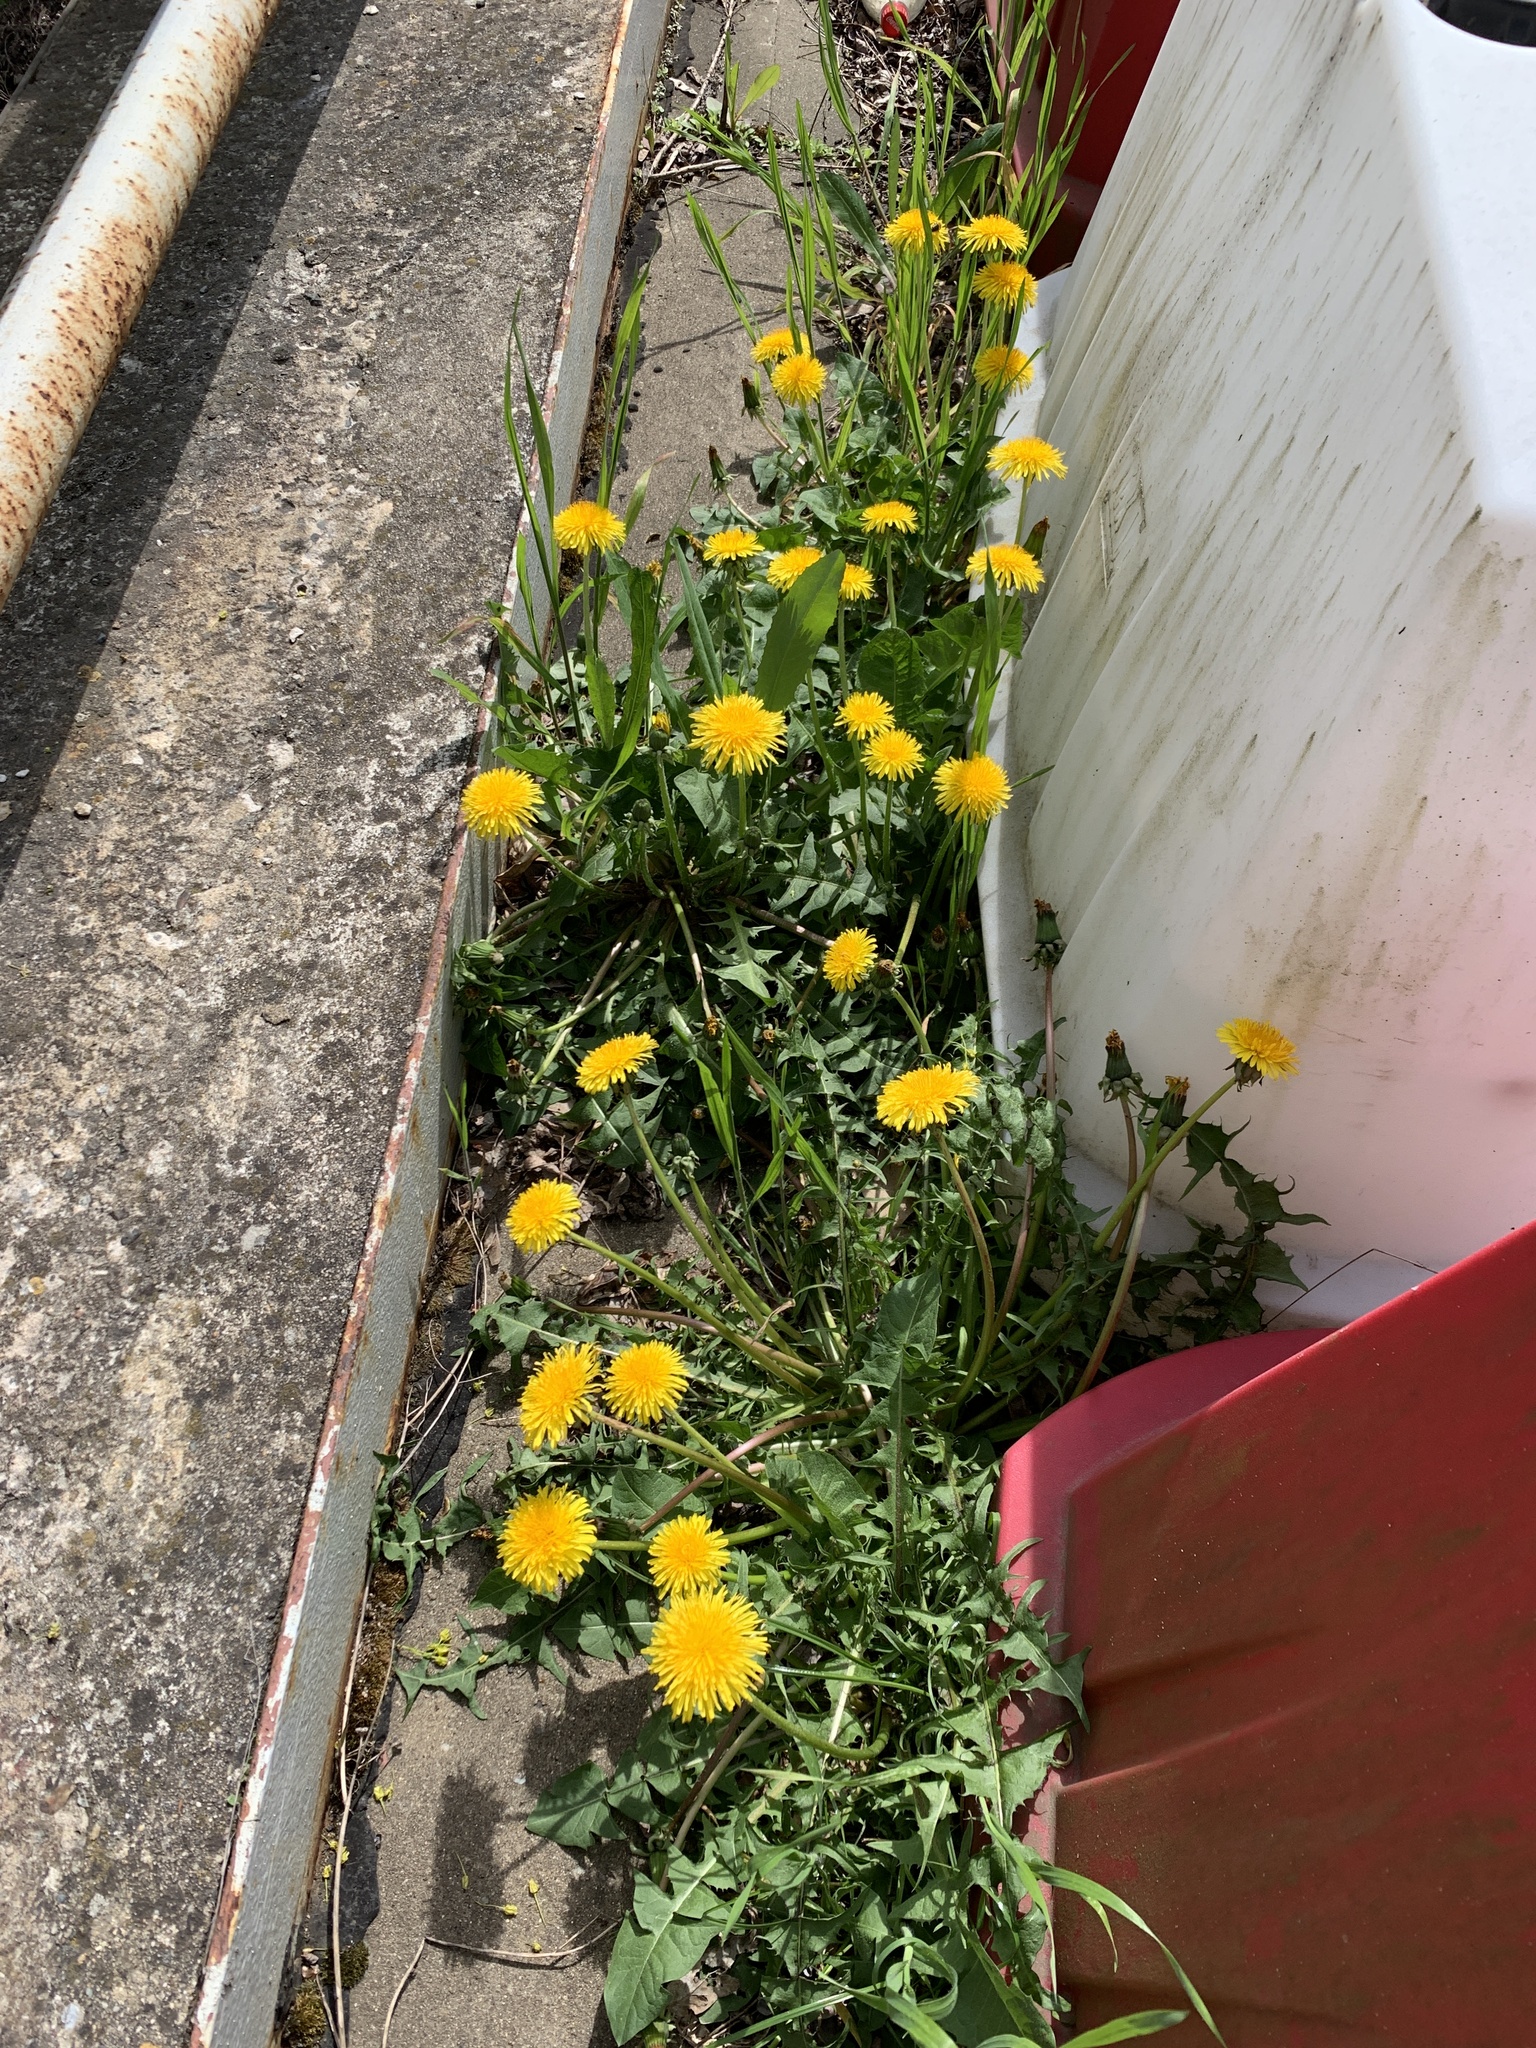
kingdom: Plantae
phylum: Tracheophyta
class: Magnoliopsida
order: Asterales
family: Asteraceae
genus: Taraxacum
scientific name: Taraxacum officinale
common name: Common dandelion
